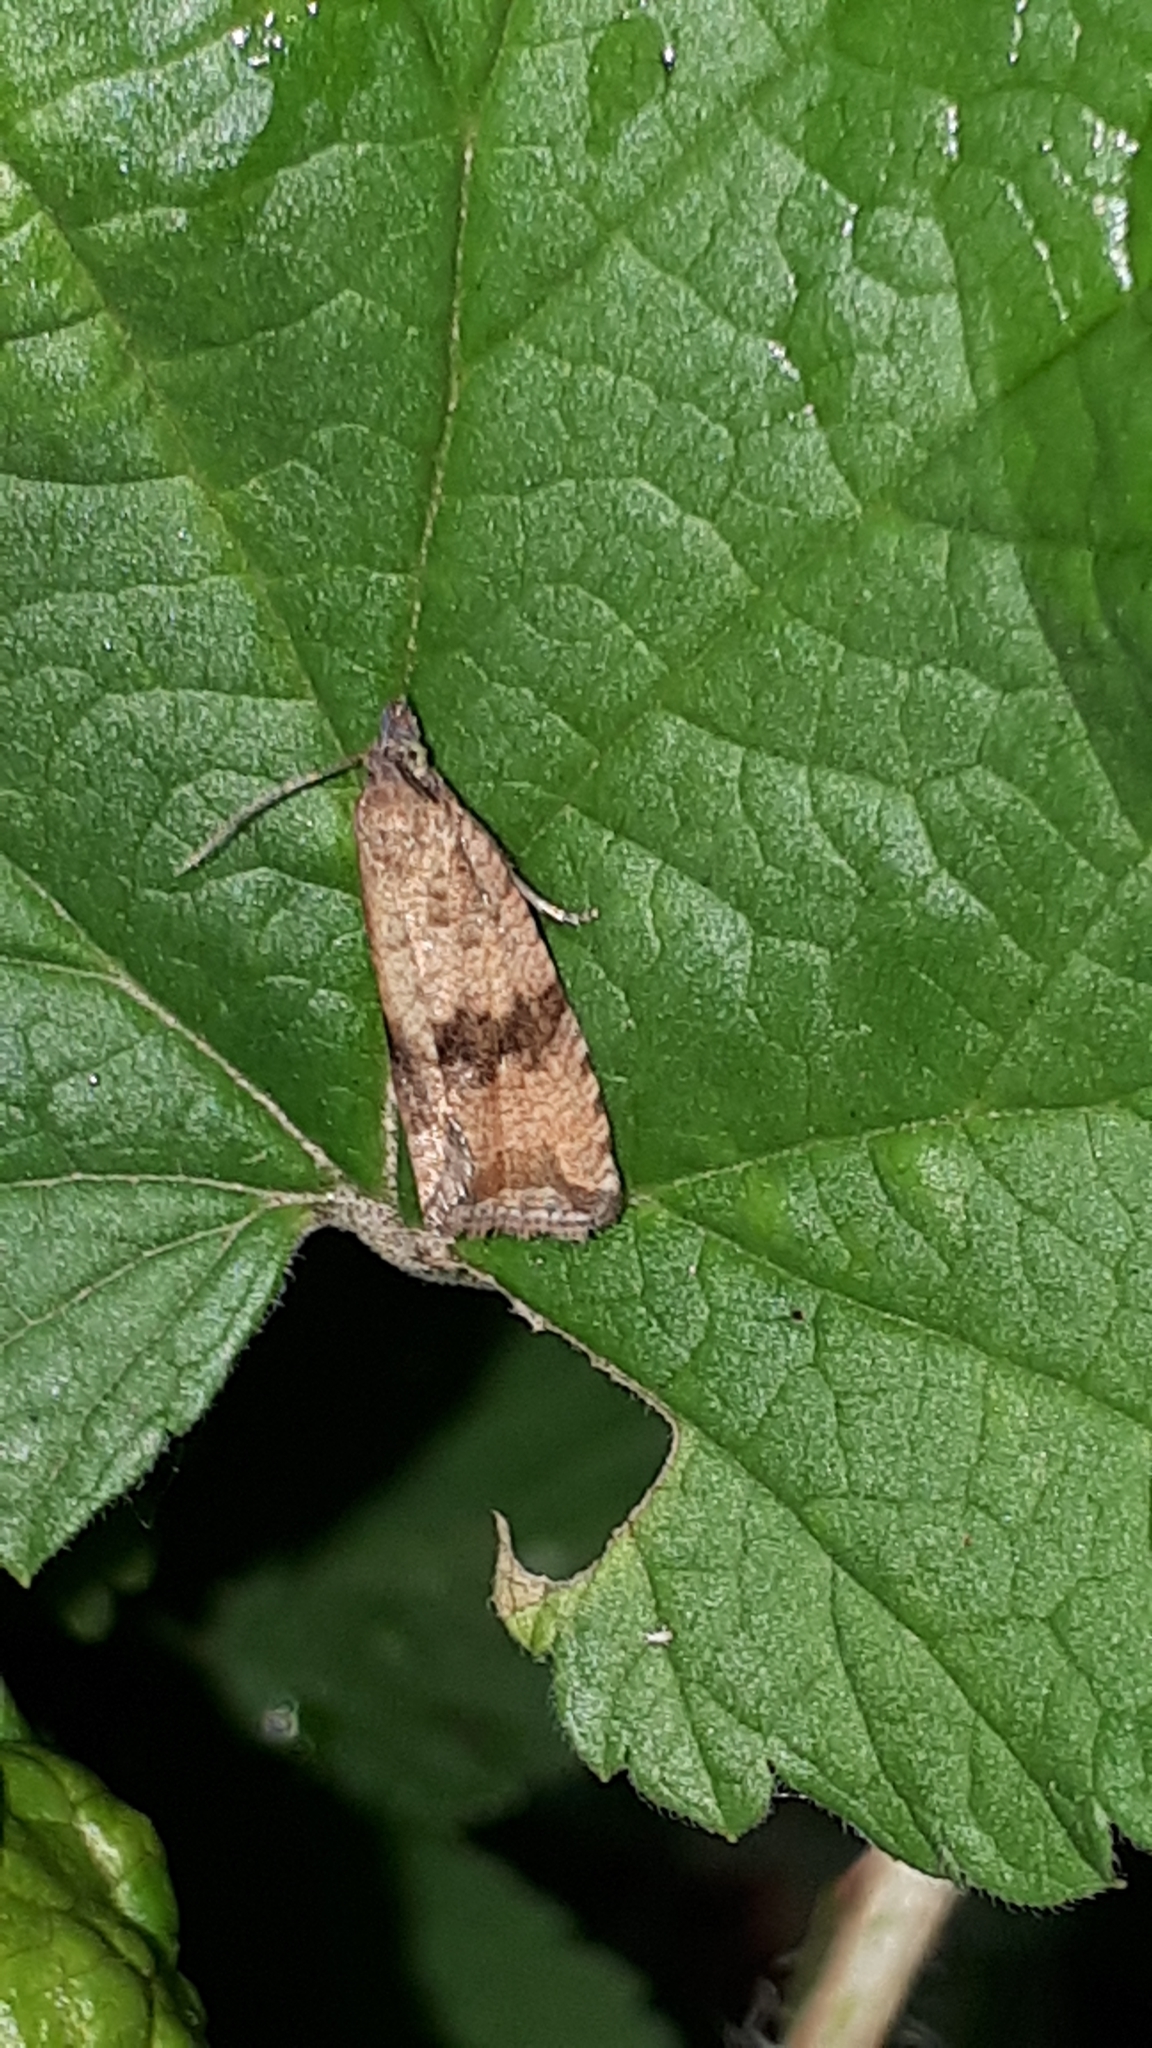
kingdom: Animalia
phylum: Arthropoda
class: Insecta
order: Lepidoptera
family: Tortricidae
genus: Celypha
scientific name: Celypha striana
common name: Barred marble
